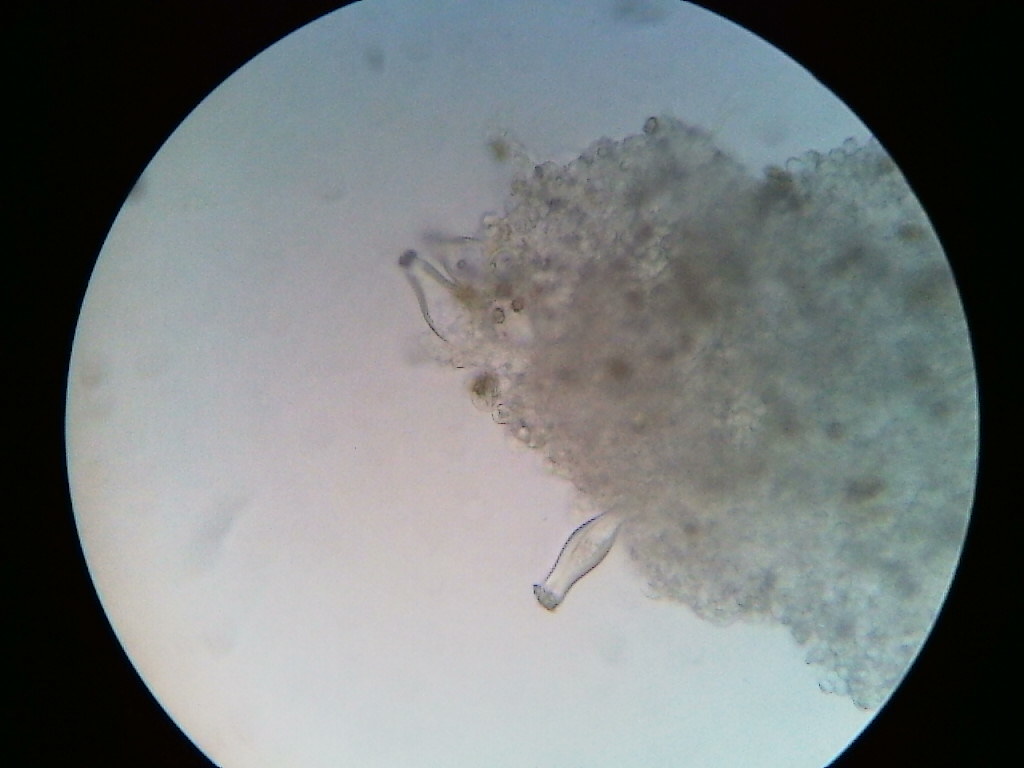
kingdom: Fungi
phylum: Basidiomycota
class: Agaricomycetes
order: Agaricales
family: Inocybaceae
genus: Inocybe
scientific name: Inocybe fibrosoides
